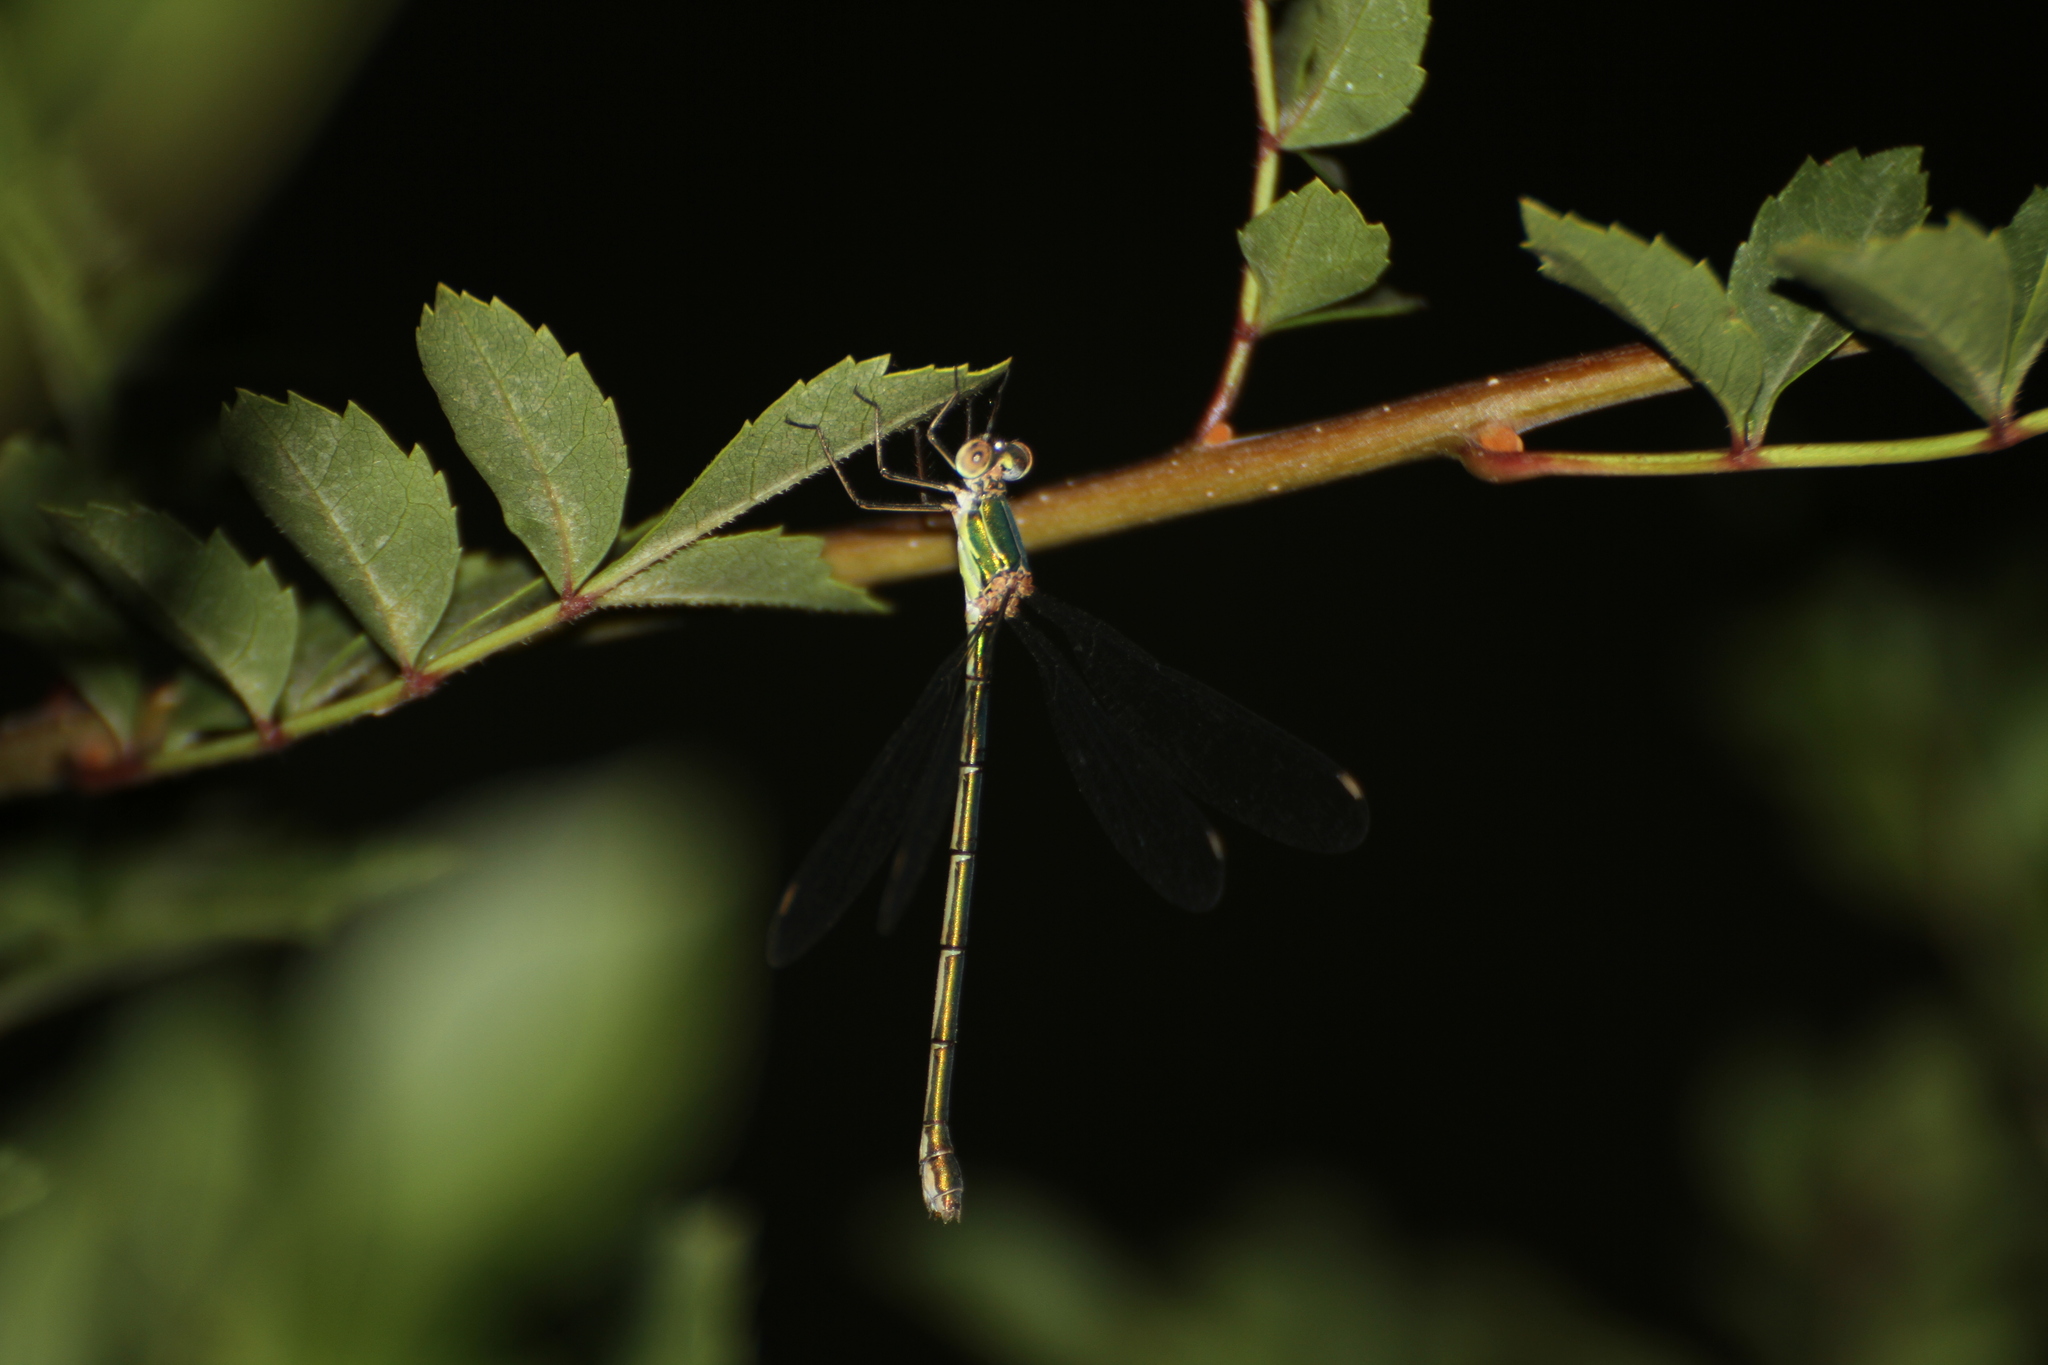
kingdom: Animalia
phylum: Arthropoda
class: Insecta
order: Odonata
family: Lestidae
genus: Chalcolestes
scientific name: Chalcolestes viridis
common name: Green emerald damselfly
